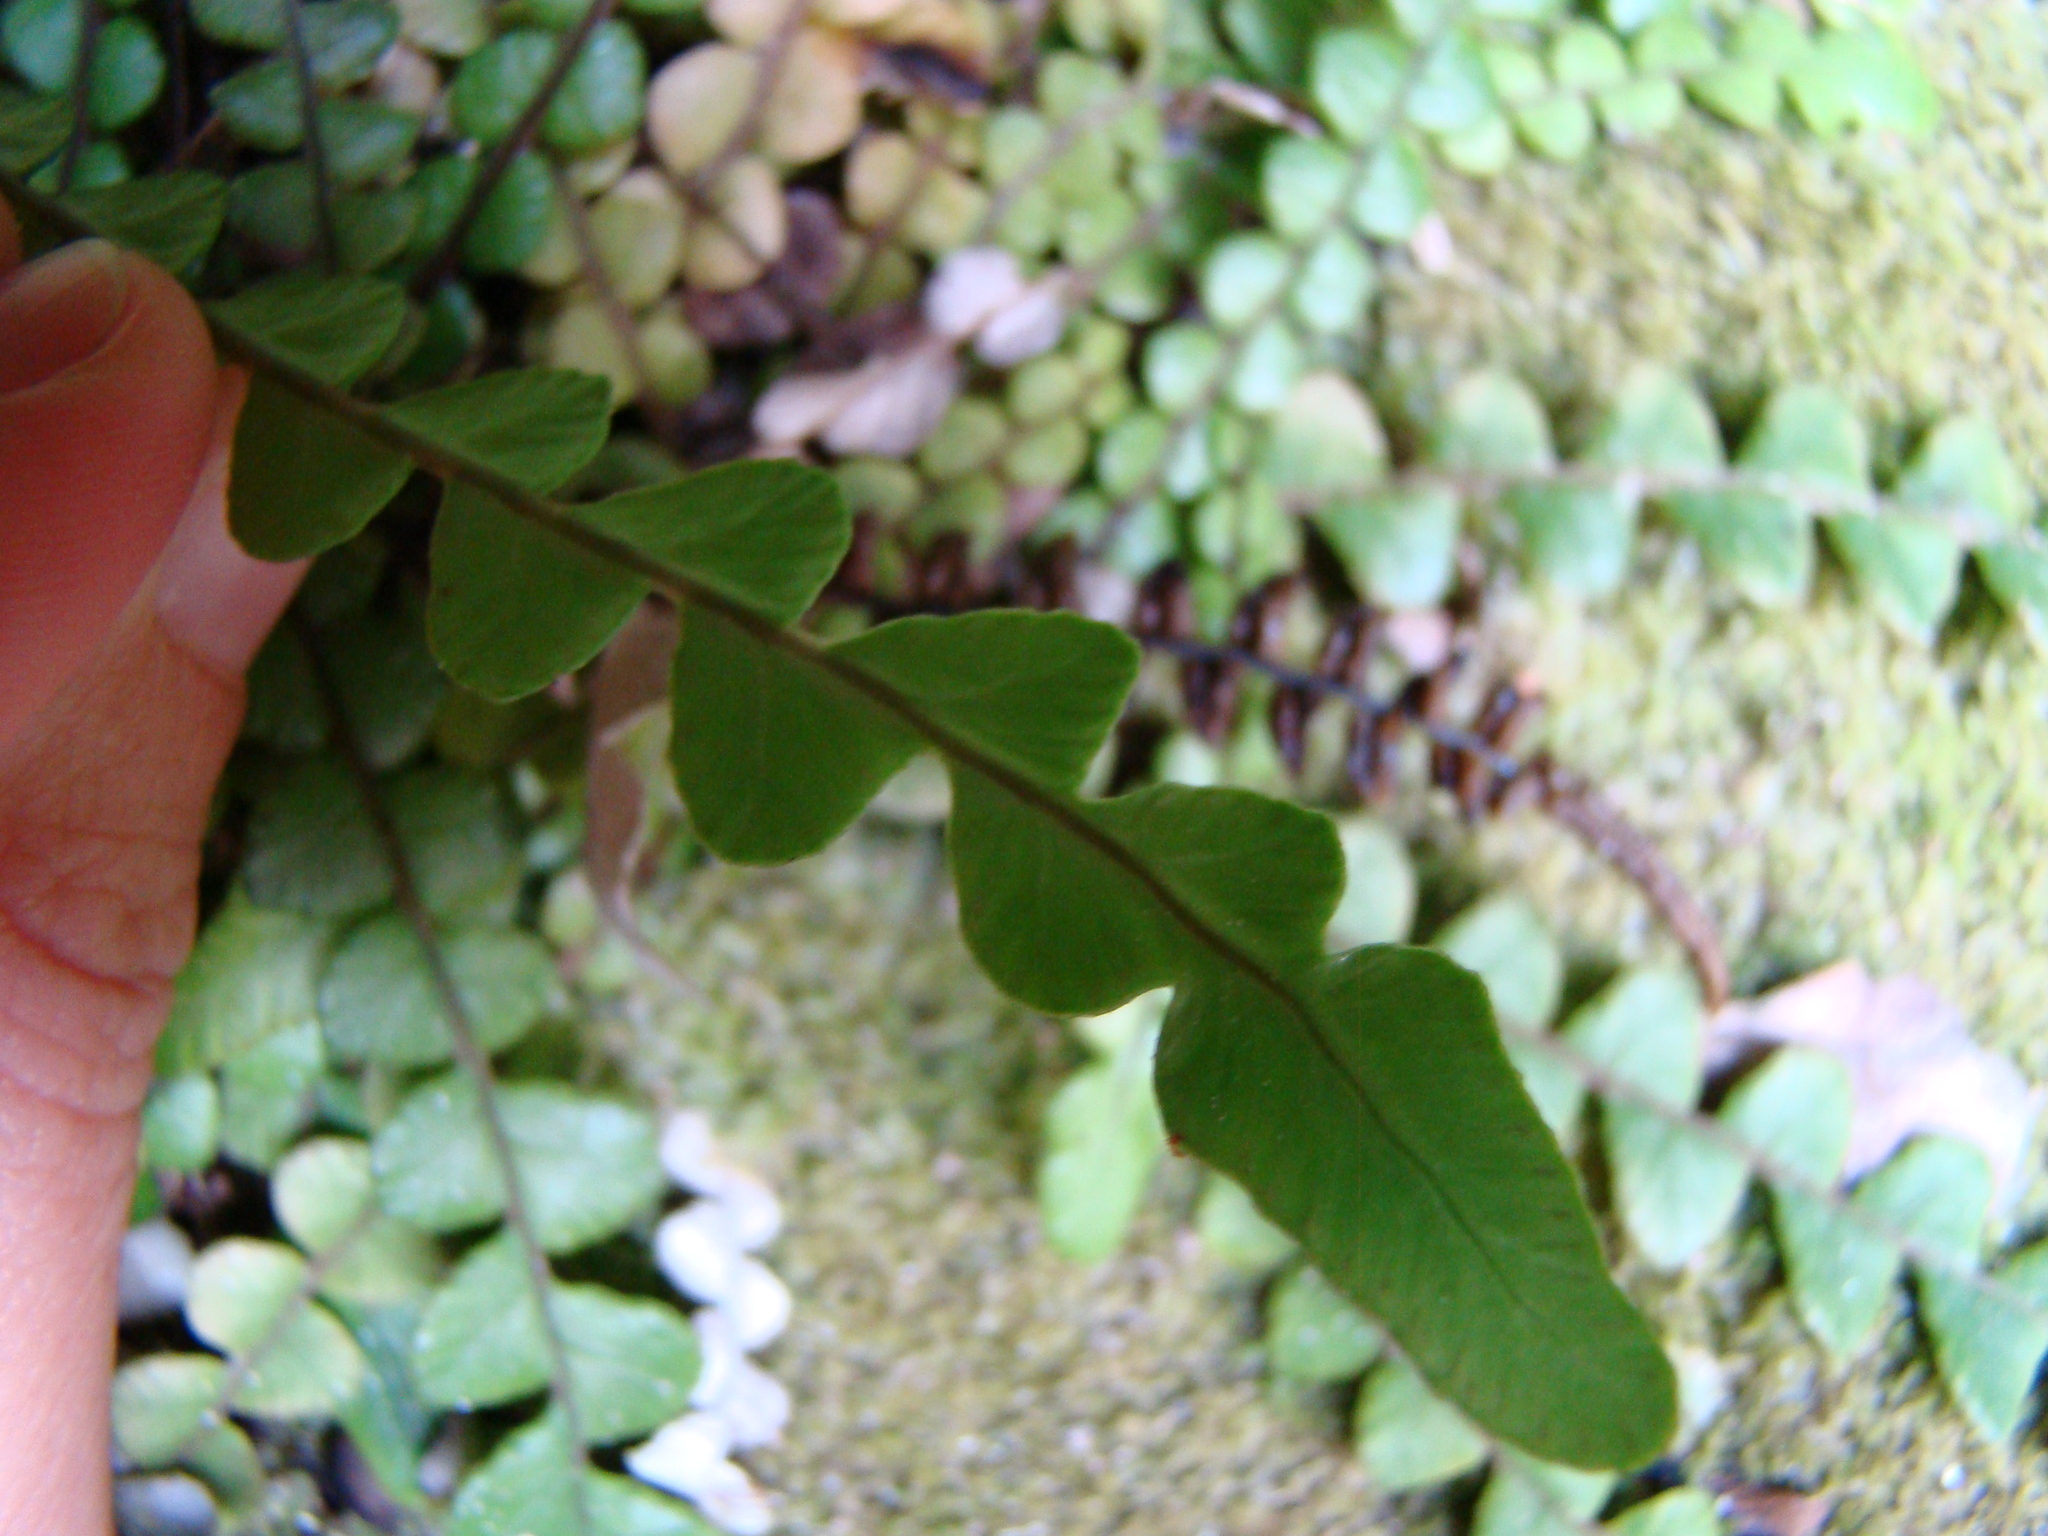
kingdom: Plantae
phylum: Tracheophyta
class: Polypodiopsida
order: Polypodiales
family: Blechnaceae
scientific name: Blechnaceae
